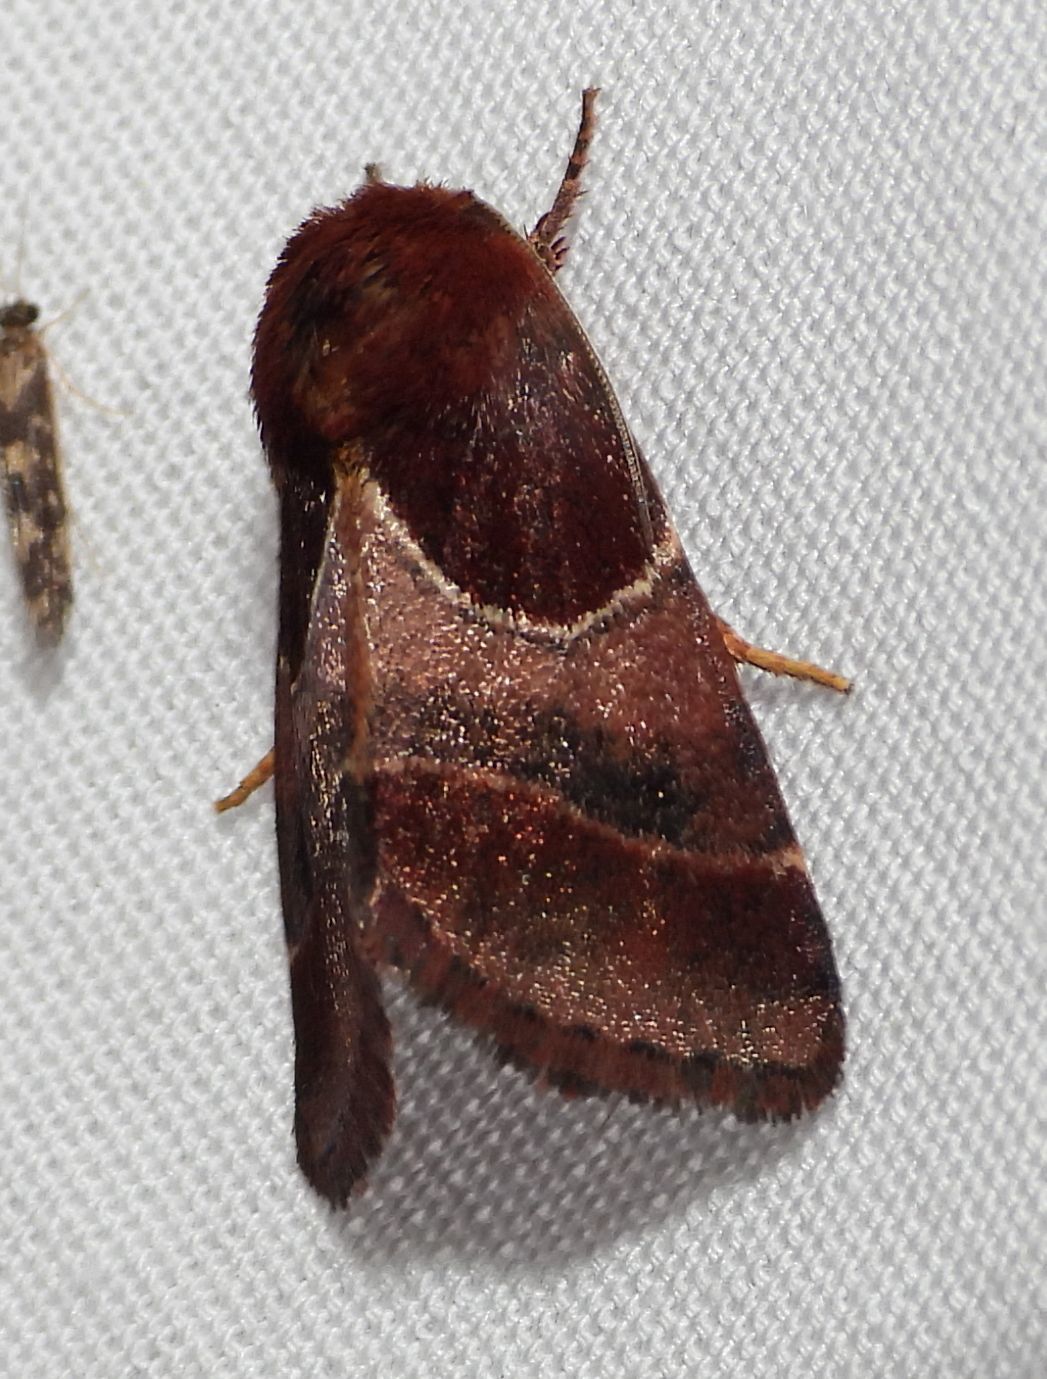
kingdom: Animalia
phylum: Arthropoda
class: Insecta
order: Lepidoptera
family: Noctuidae
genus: Schinia
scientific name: Schinia arcigera
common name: Arcigera flower moth
